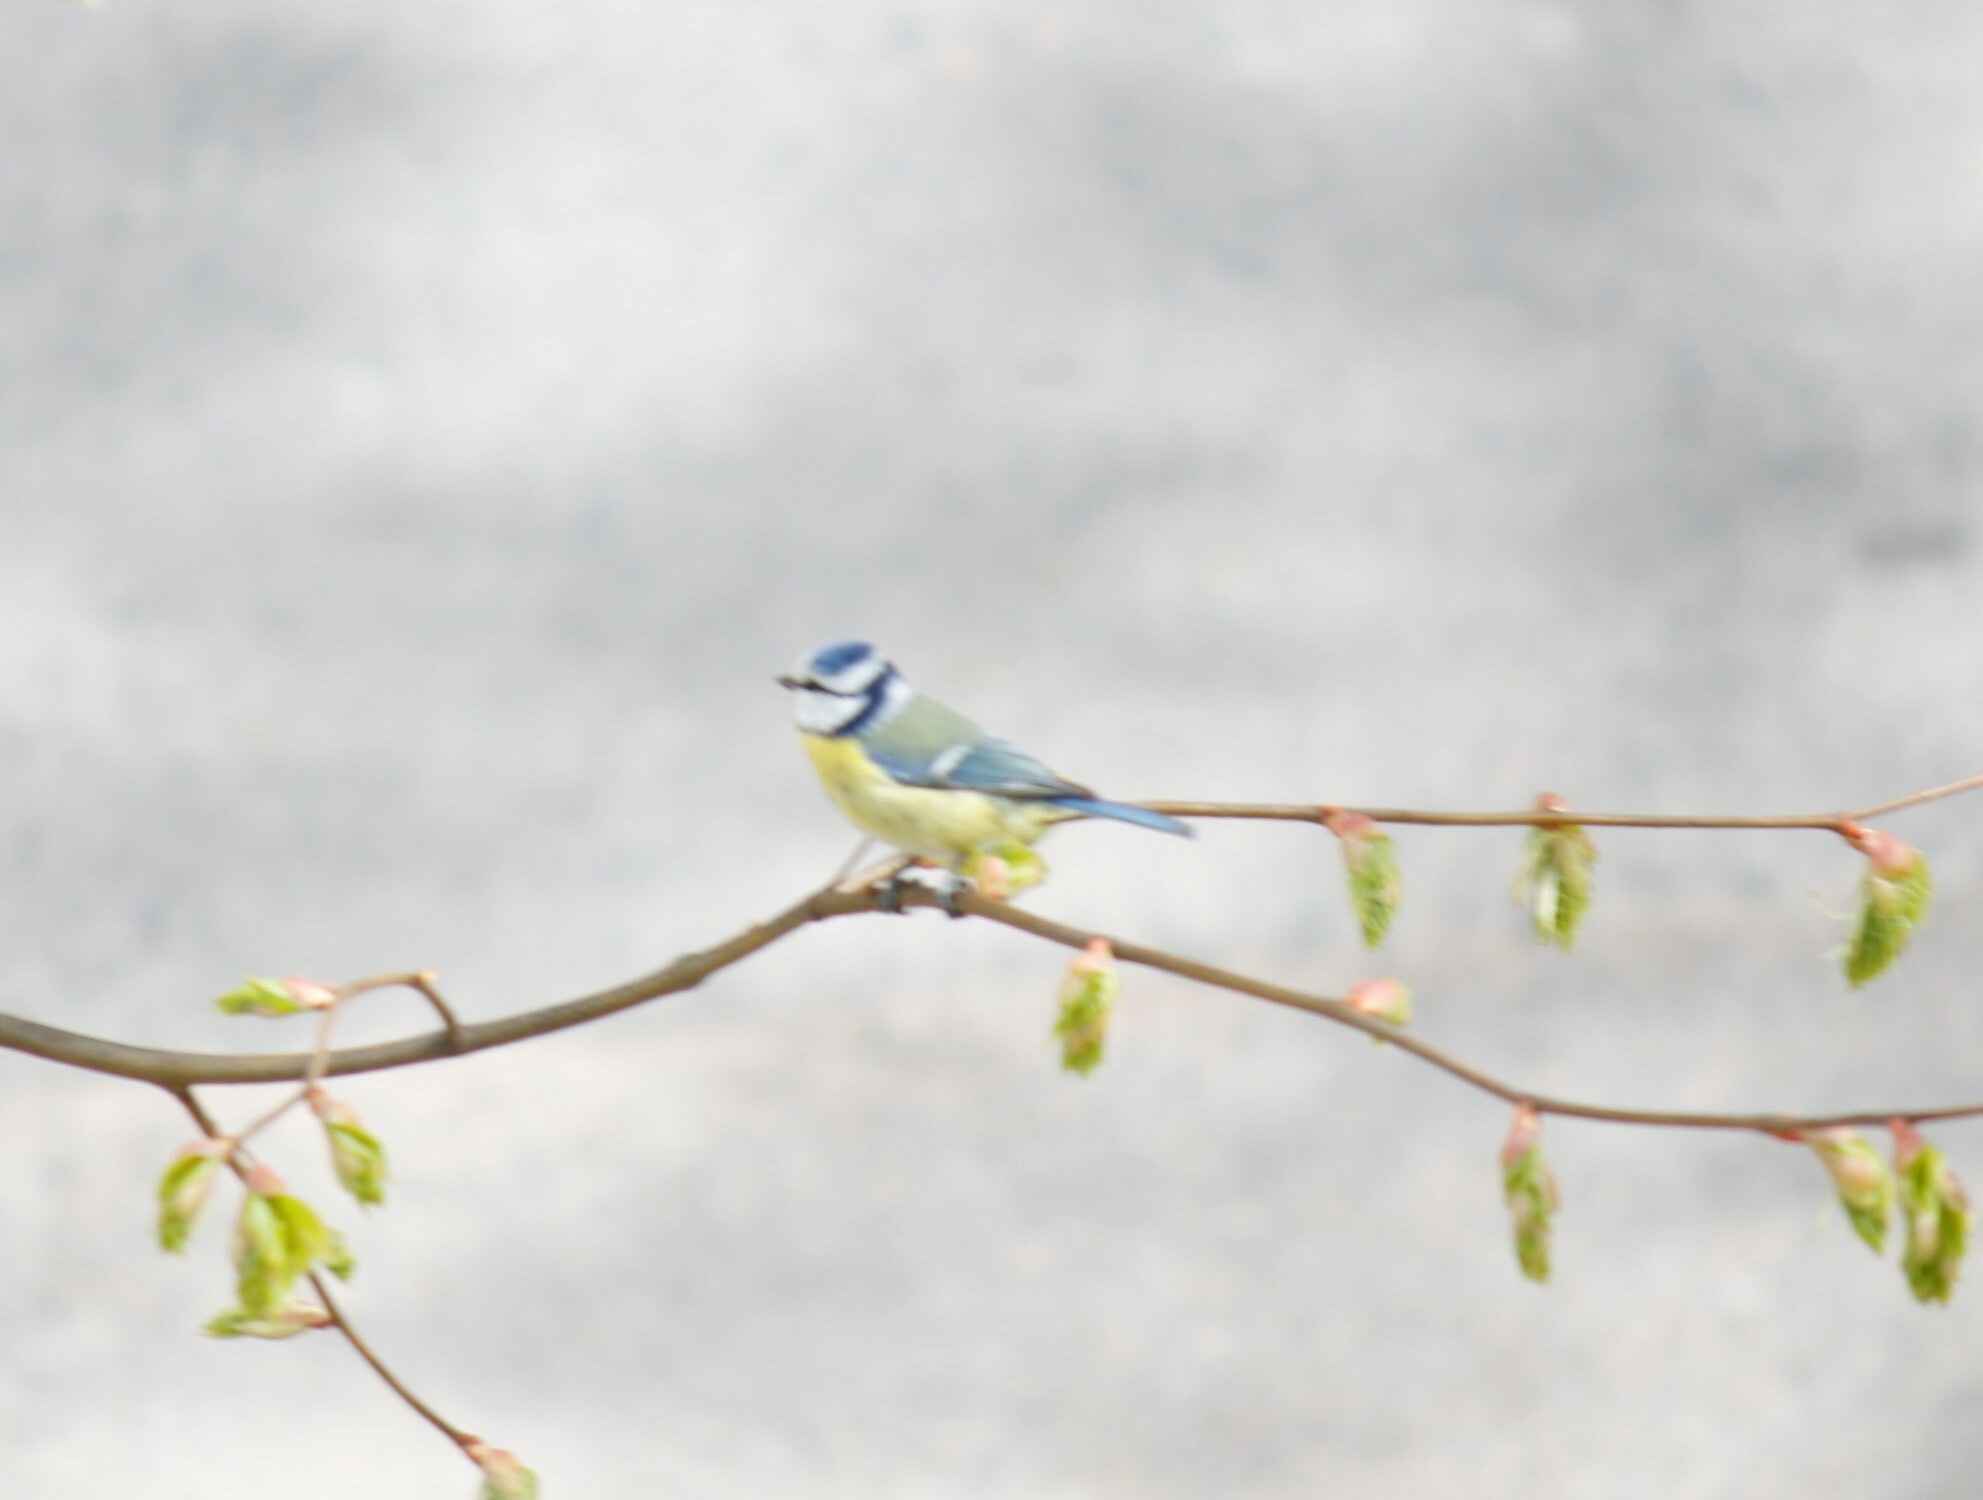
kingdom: Animalia
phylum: Chordata
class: Aves
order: Passeriformes
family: Paridae
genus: Cyanistes
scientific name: Cyanistes caeruleus
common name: Eurasian blue tit
